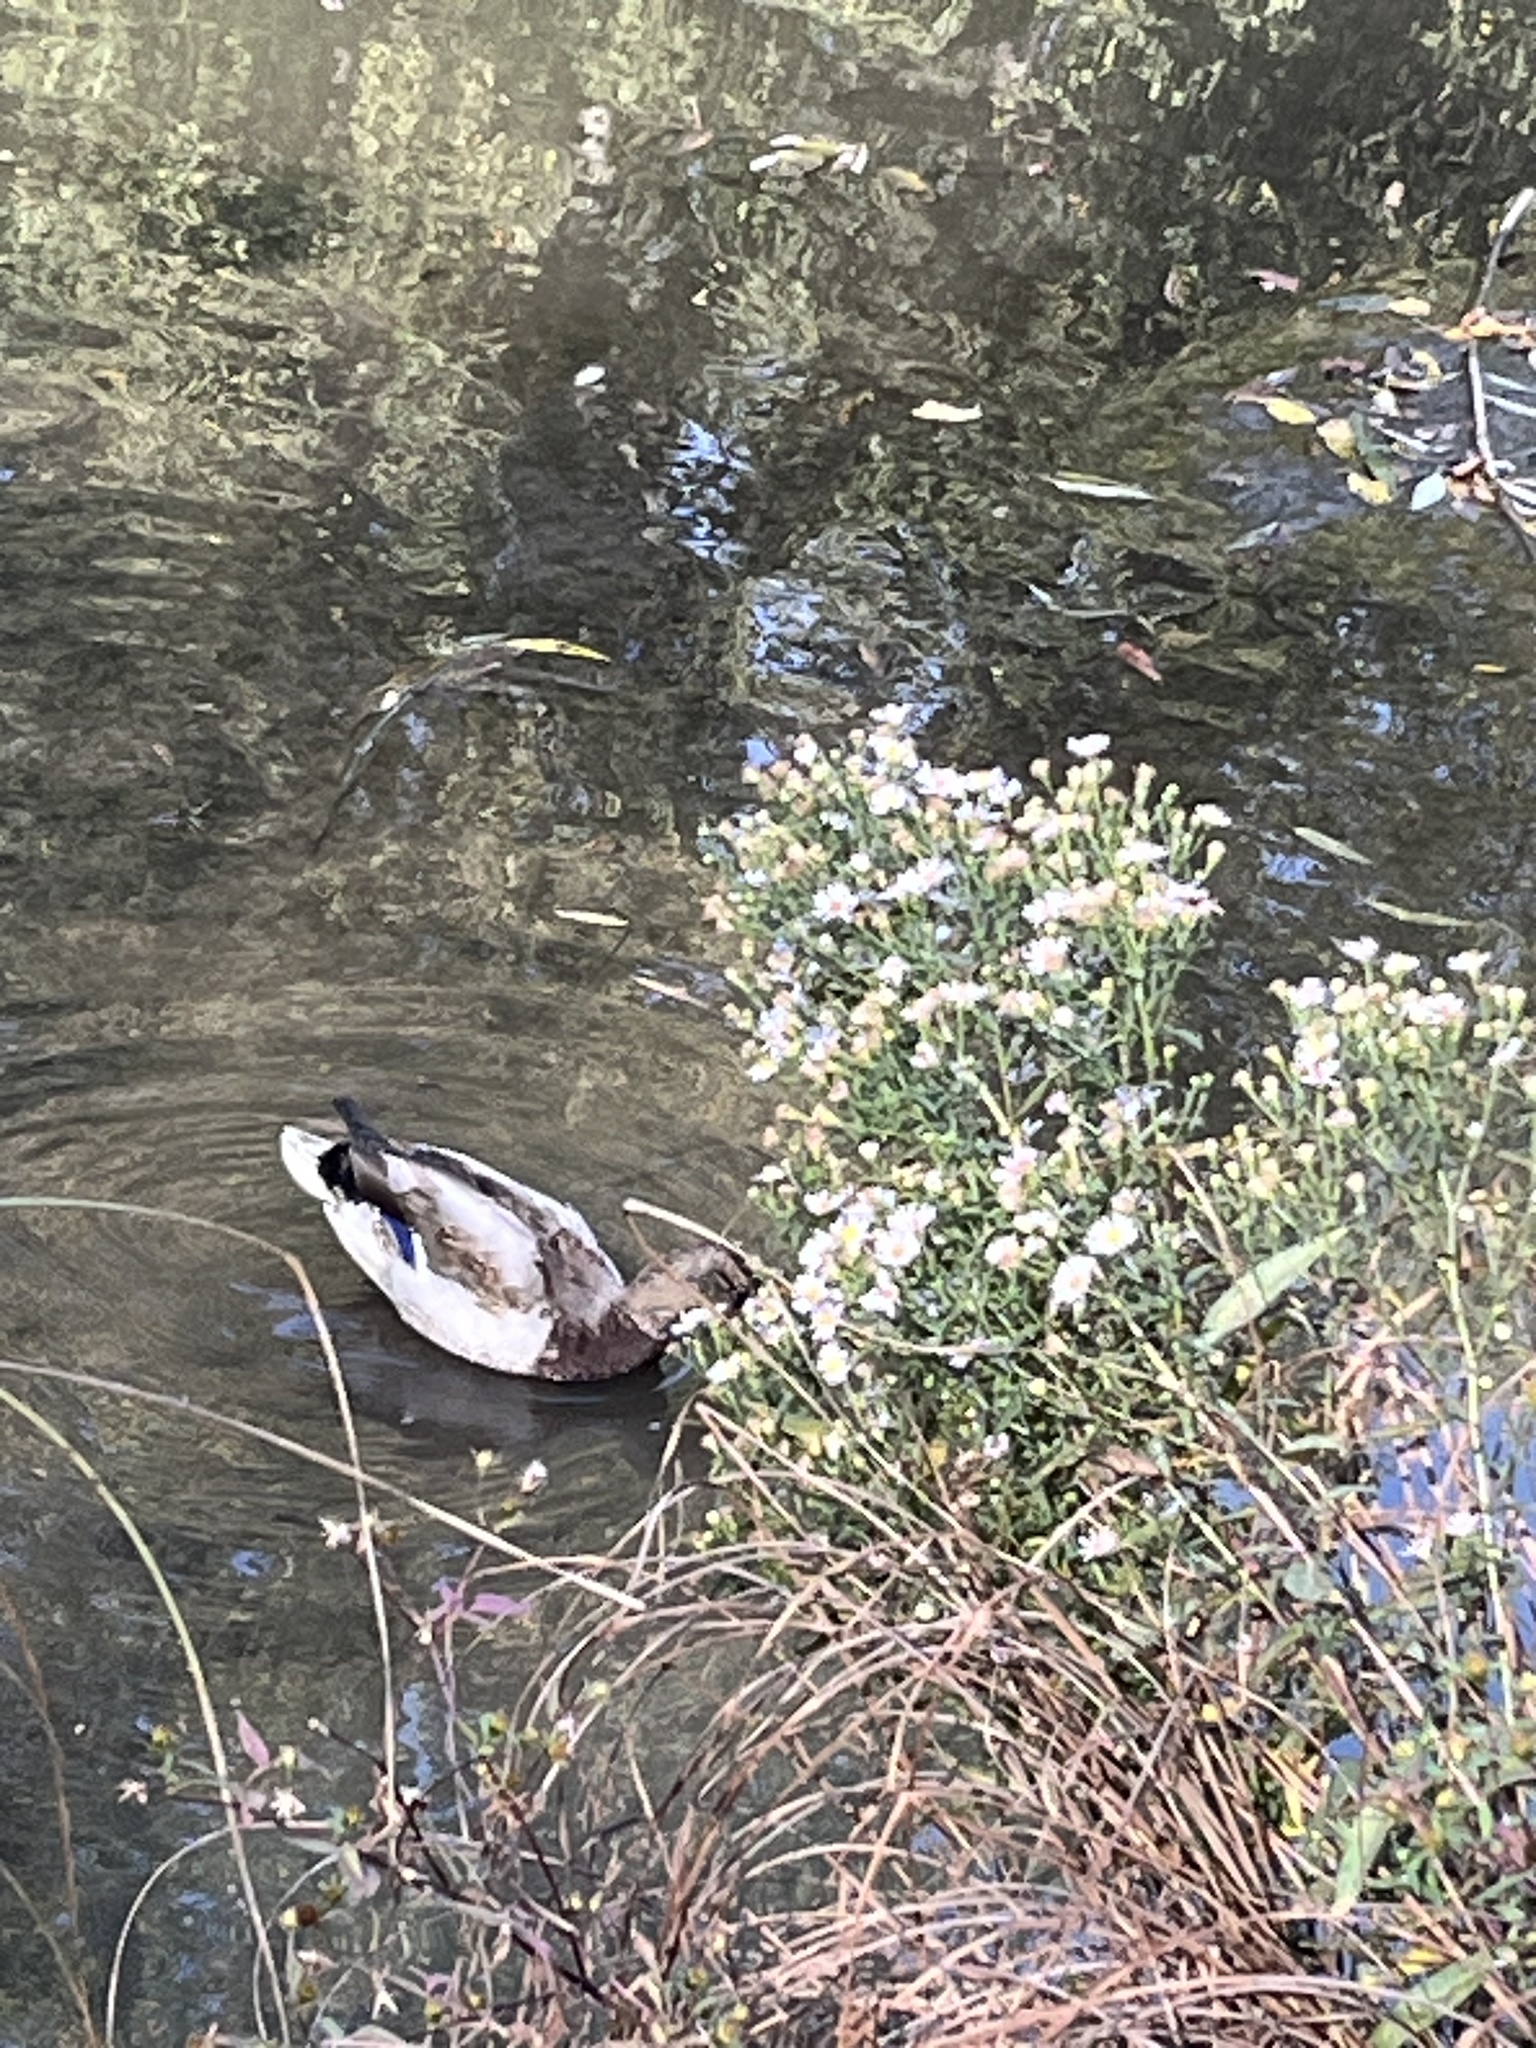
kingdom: Animalia
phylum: Chordata
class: Aves
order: Anseriformes
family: Anatidae
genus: Anas
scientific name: Anas platyrhynchos
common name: Mallard
